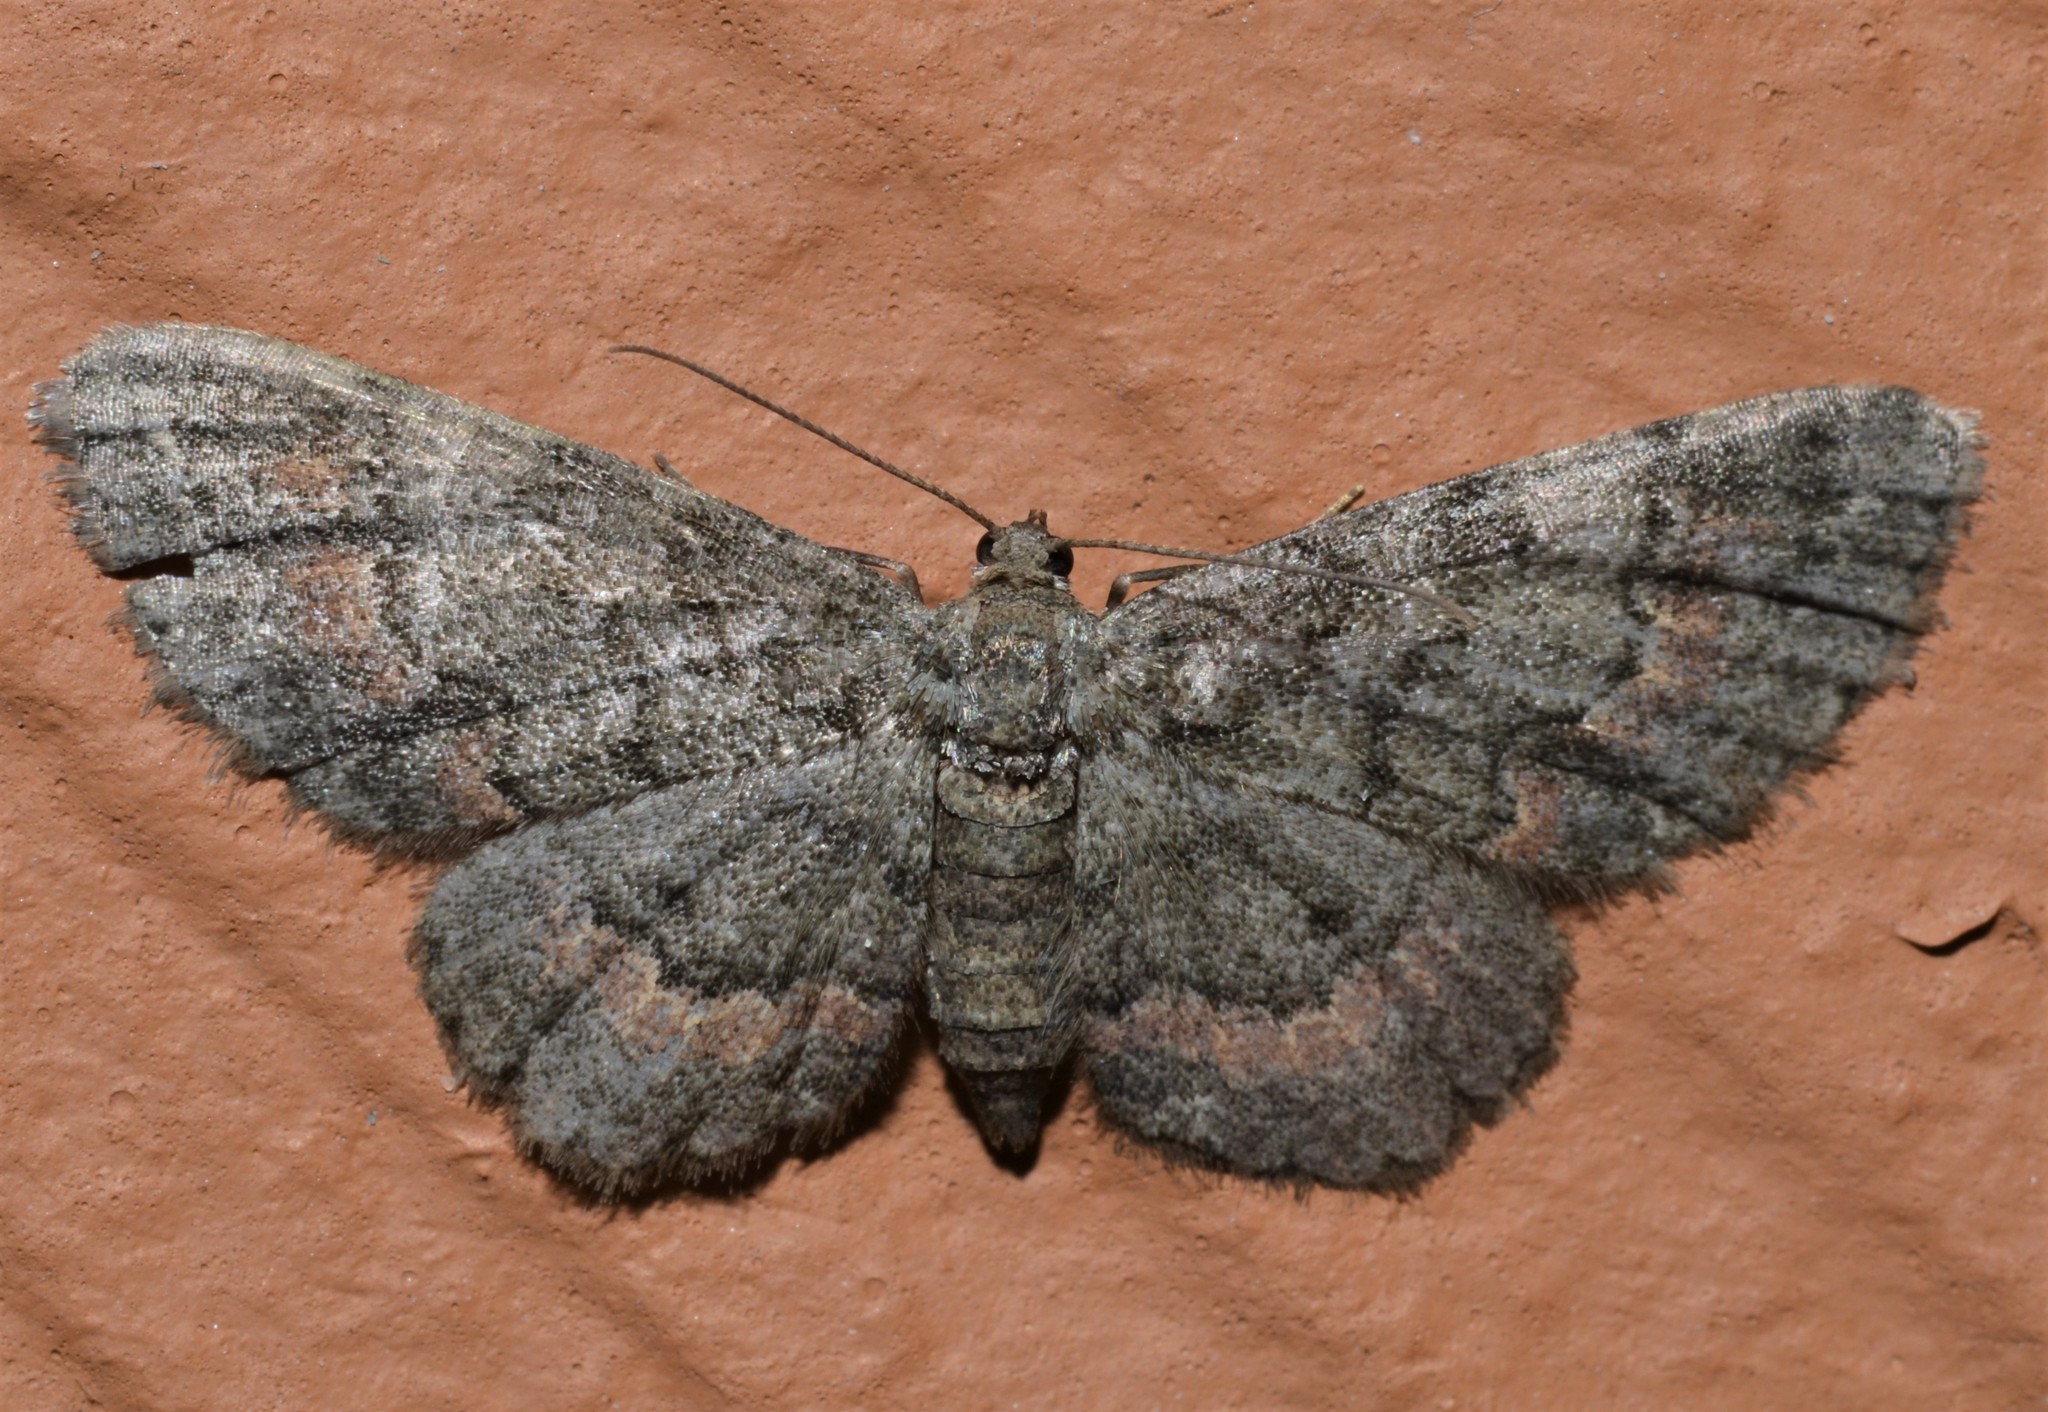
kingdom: Animalia
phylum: Arthropoda
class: Insecta
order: Lepidoptera
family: Geometridae
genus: Glenoides
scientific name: Glenoides texanaria
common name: Texas gray
